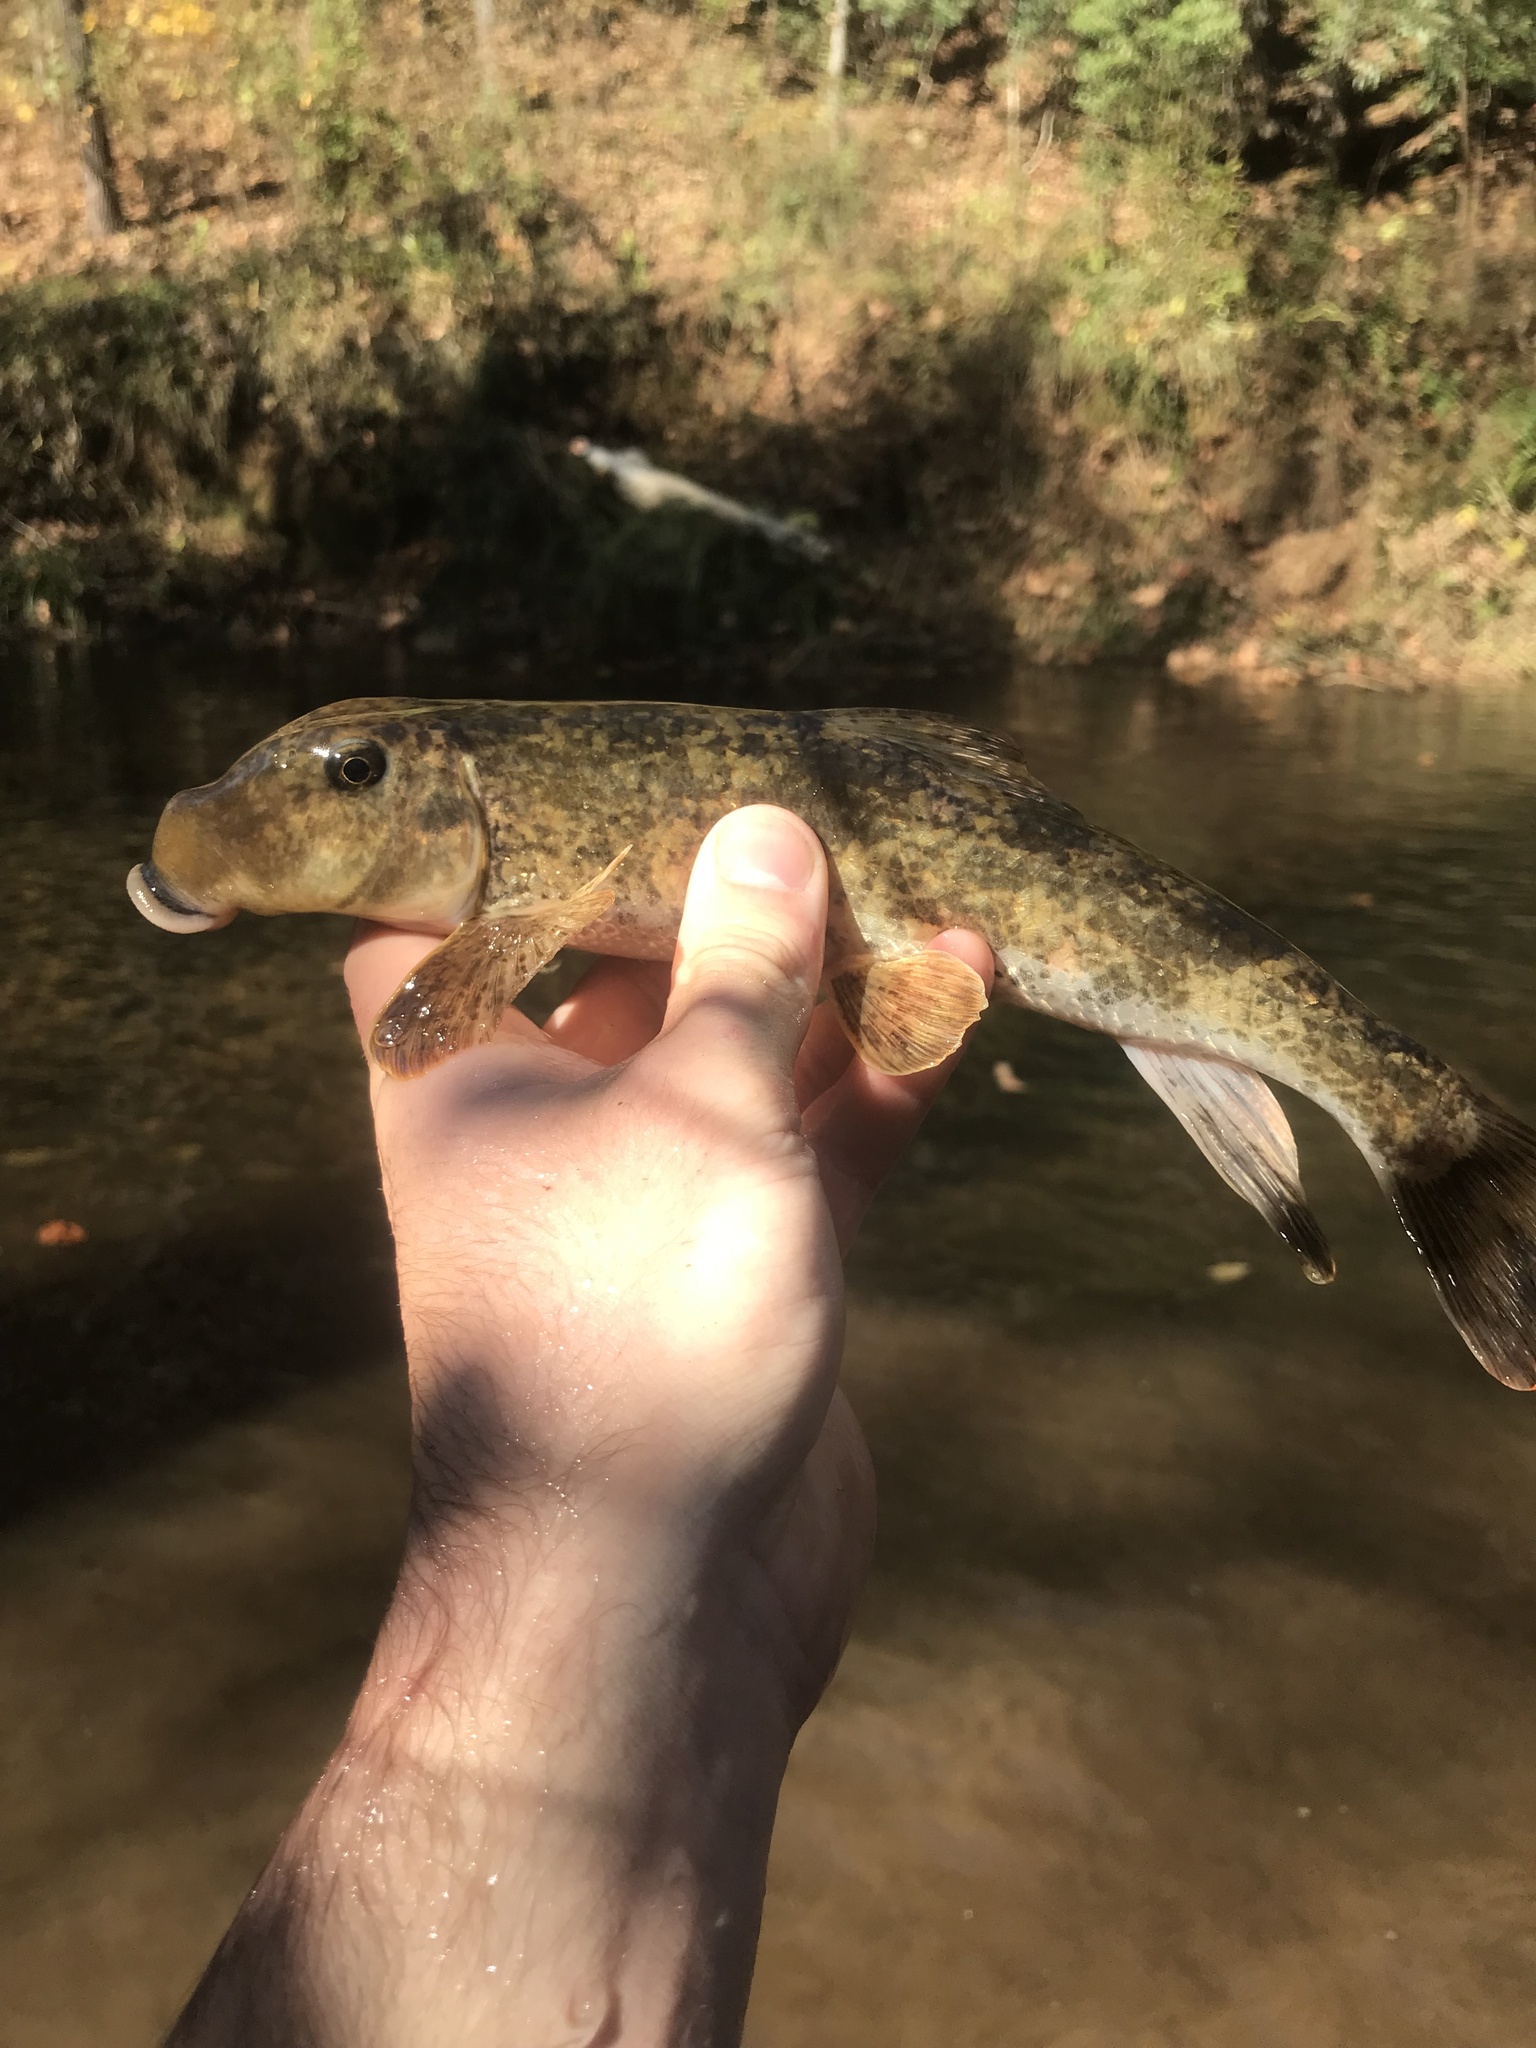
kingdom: Animalia
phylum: Chordata
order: Cypriniformes
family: Catostomidae
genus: Hypentelium
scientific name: Hypentelium nigricans
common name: Northern hog sucker
